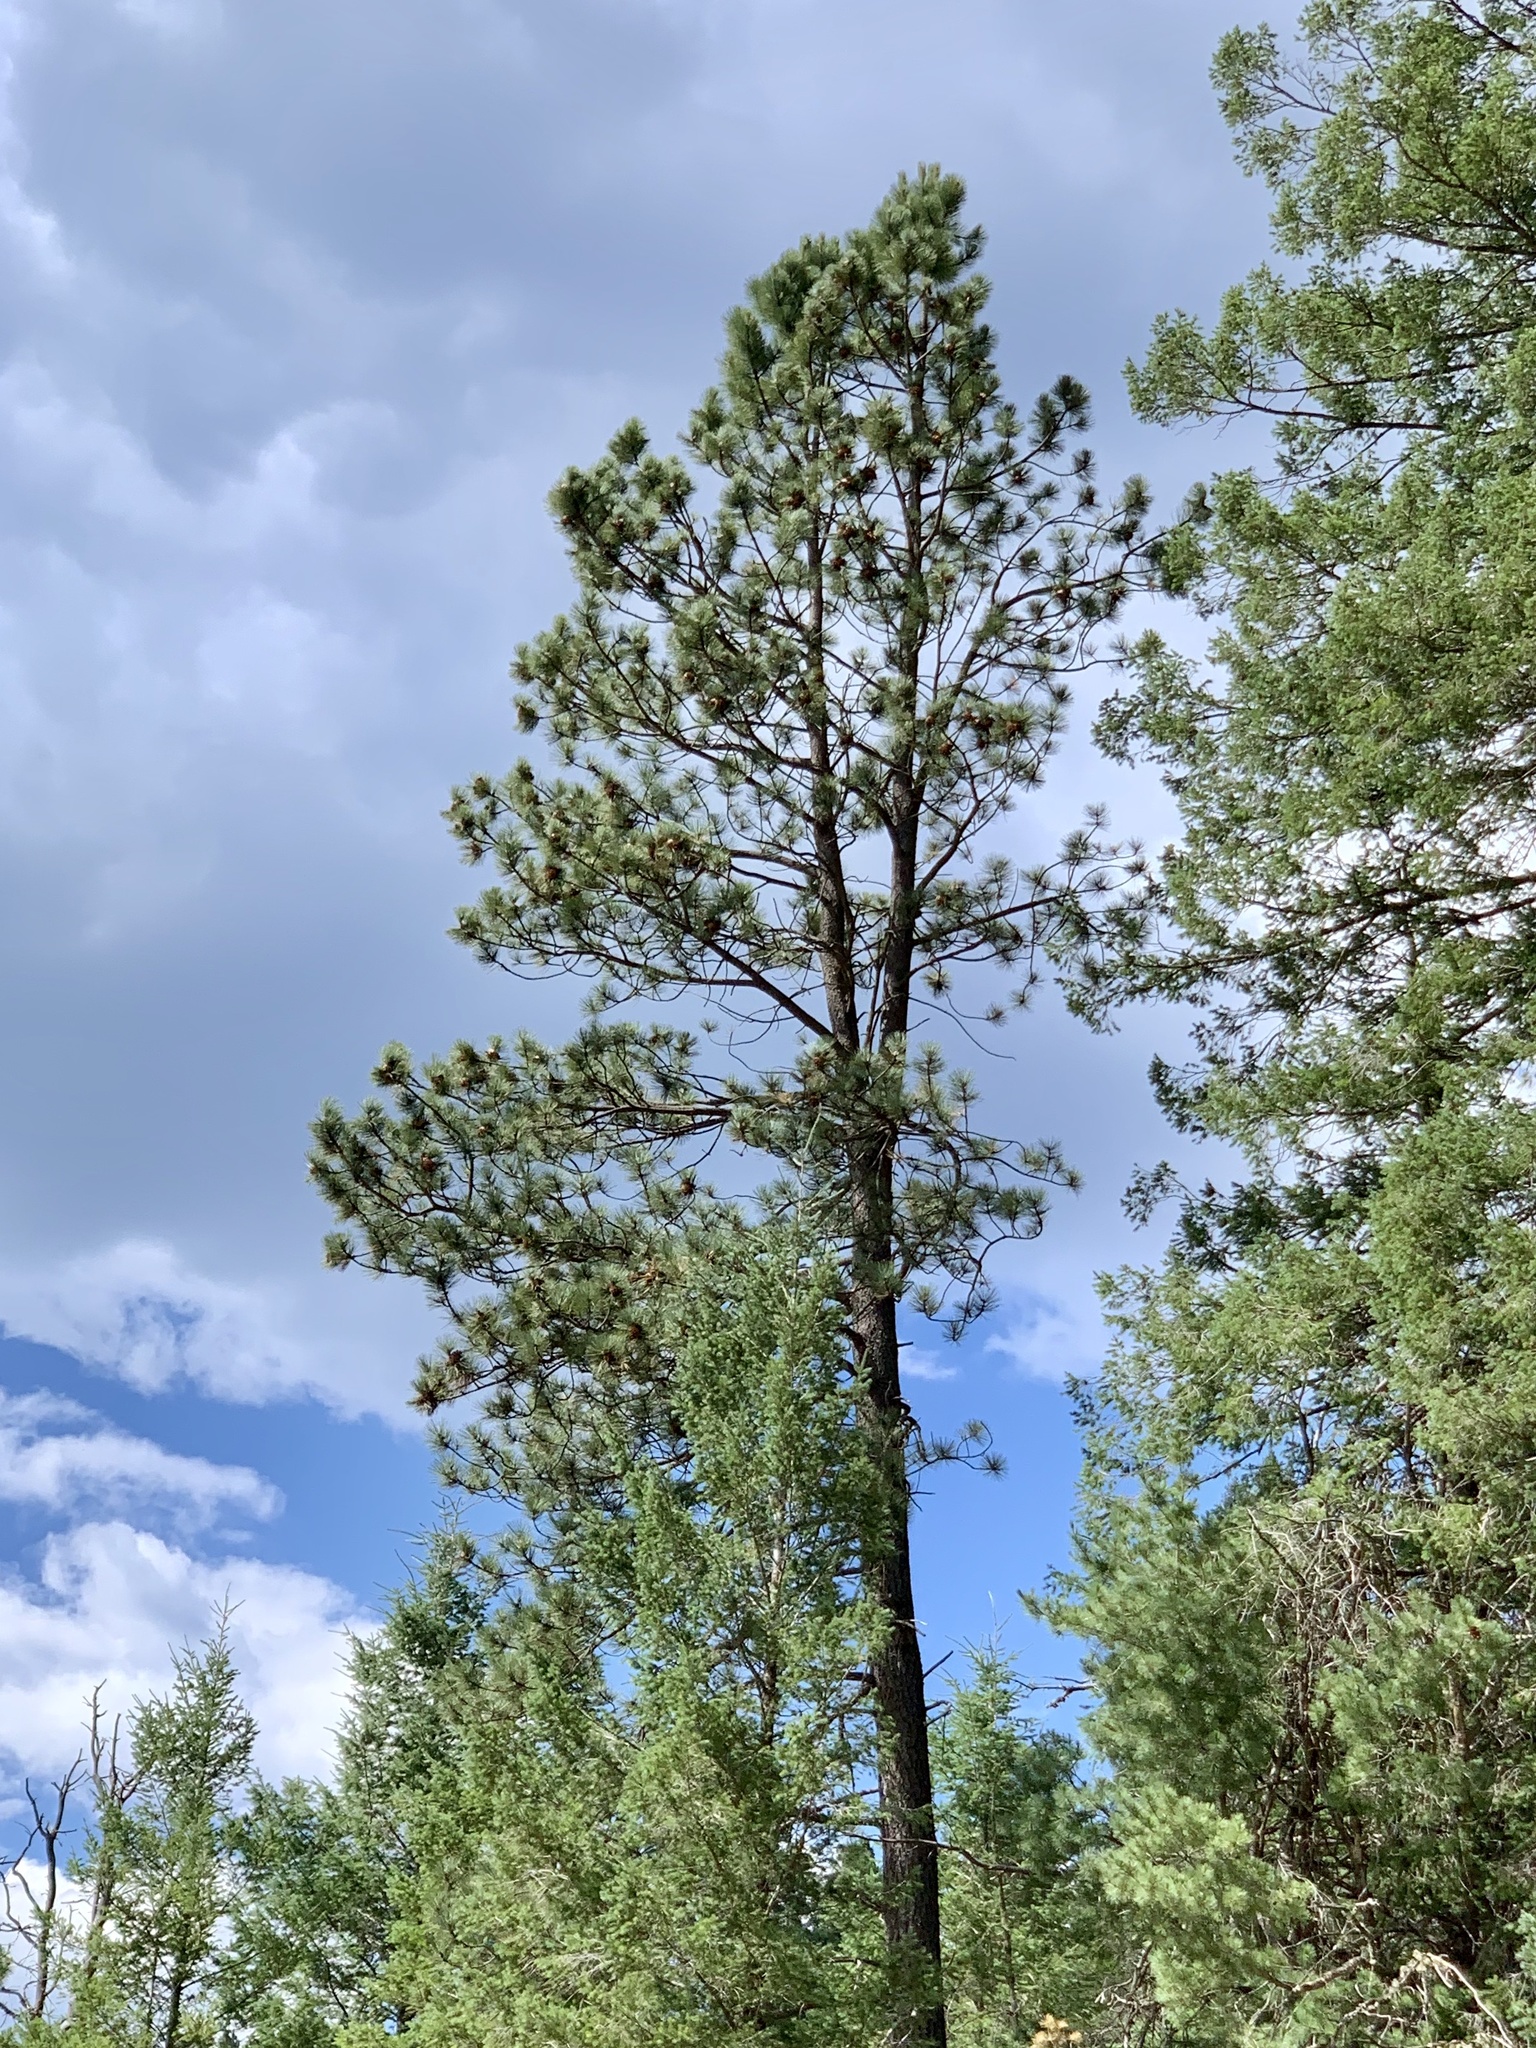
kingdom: Plantae
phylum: Tracheophyta
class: Pinopsida
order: Pinales
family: Pinaceae
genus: Pinus
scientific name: Pinus ponderosa
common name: Western yellow-pine
